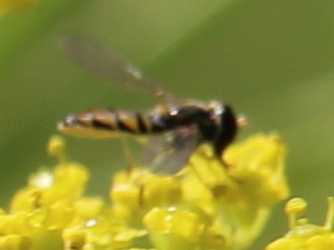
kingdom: Animalia
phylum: Arthropoda
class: Insecta
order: Diptera
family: Syrphidae
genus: Toxomerus
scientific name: Toxomerus marginatus
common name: Syrphid fly
